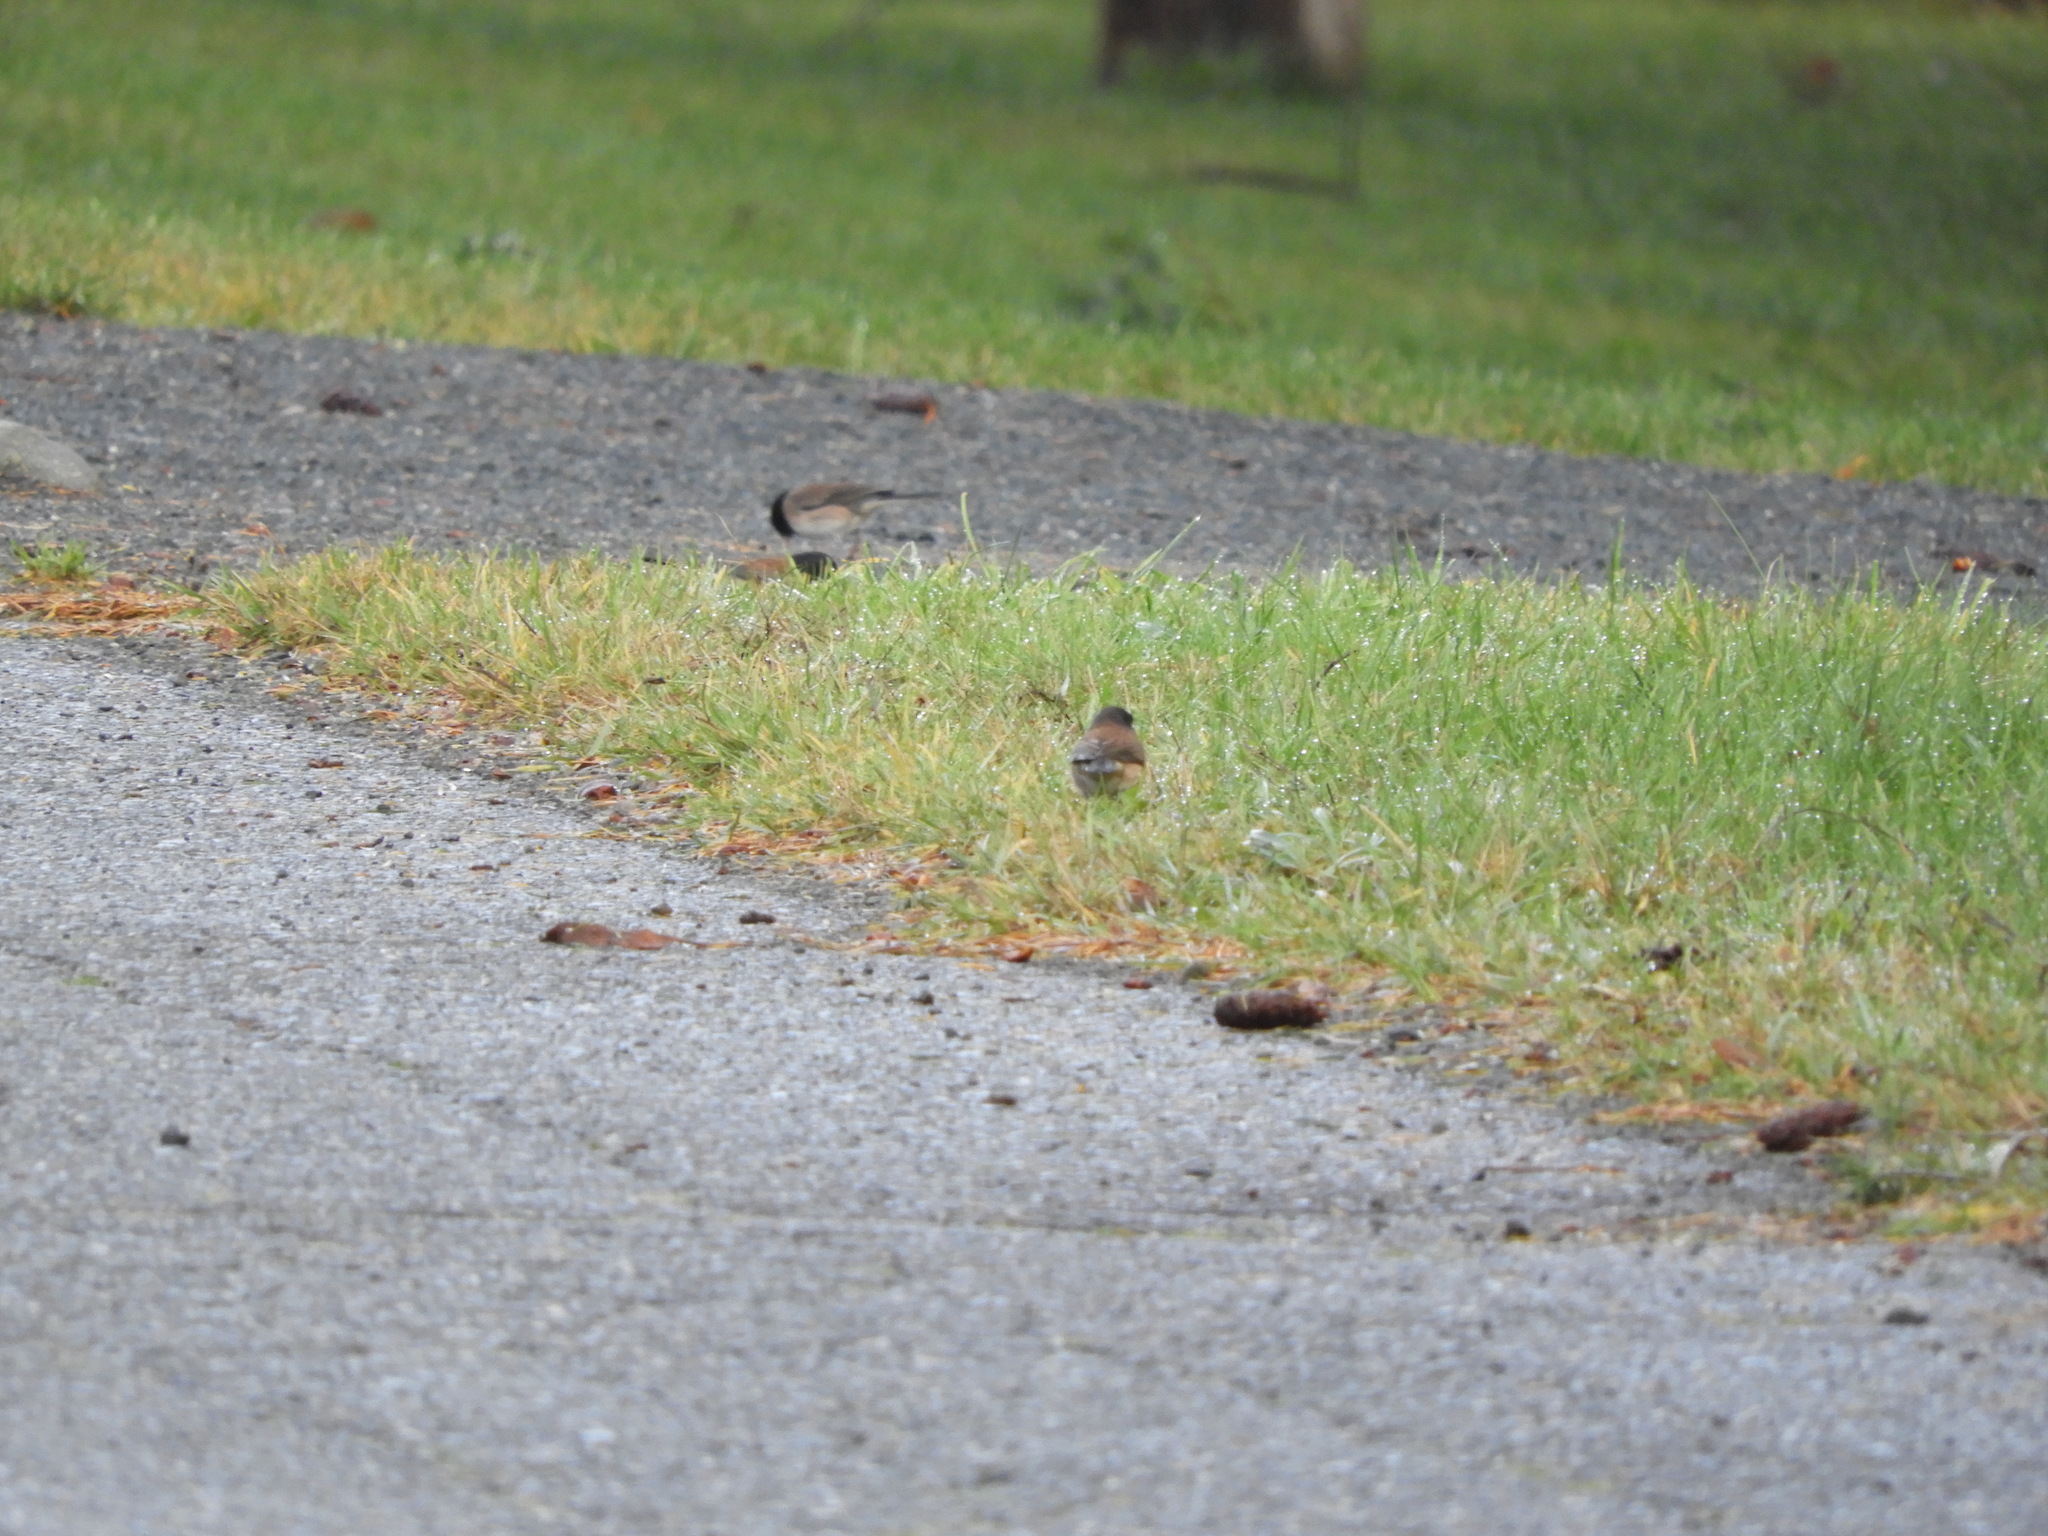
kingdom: Animalia
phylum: Chordata
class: Aves
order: Passeriformes
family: Passerellidae
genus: Junco
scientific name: Junco hyemalis
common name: Dark-eyed junco
